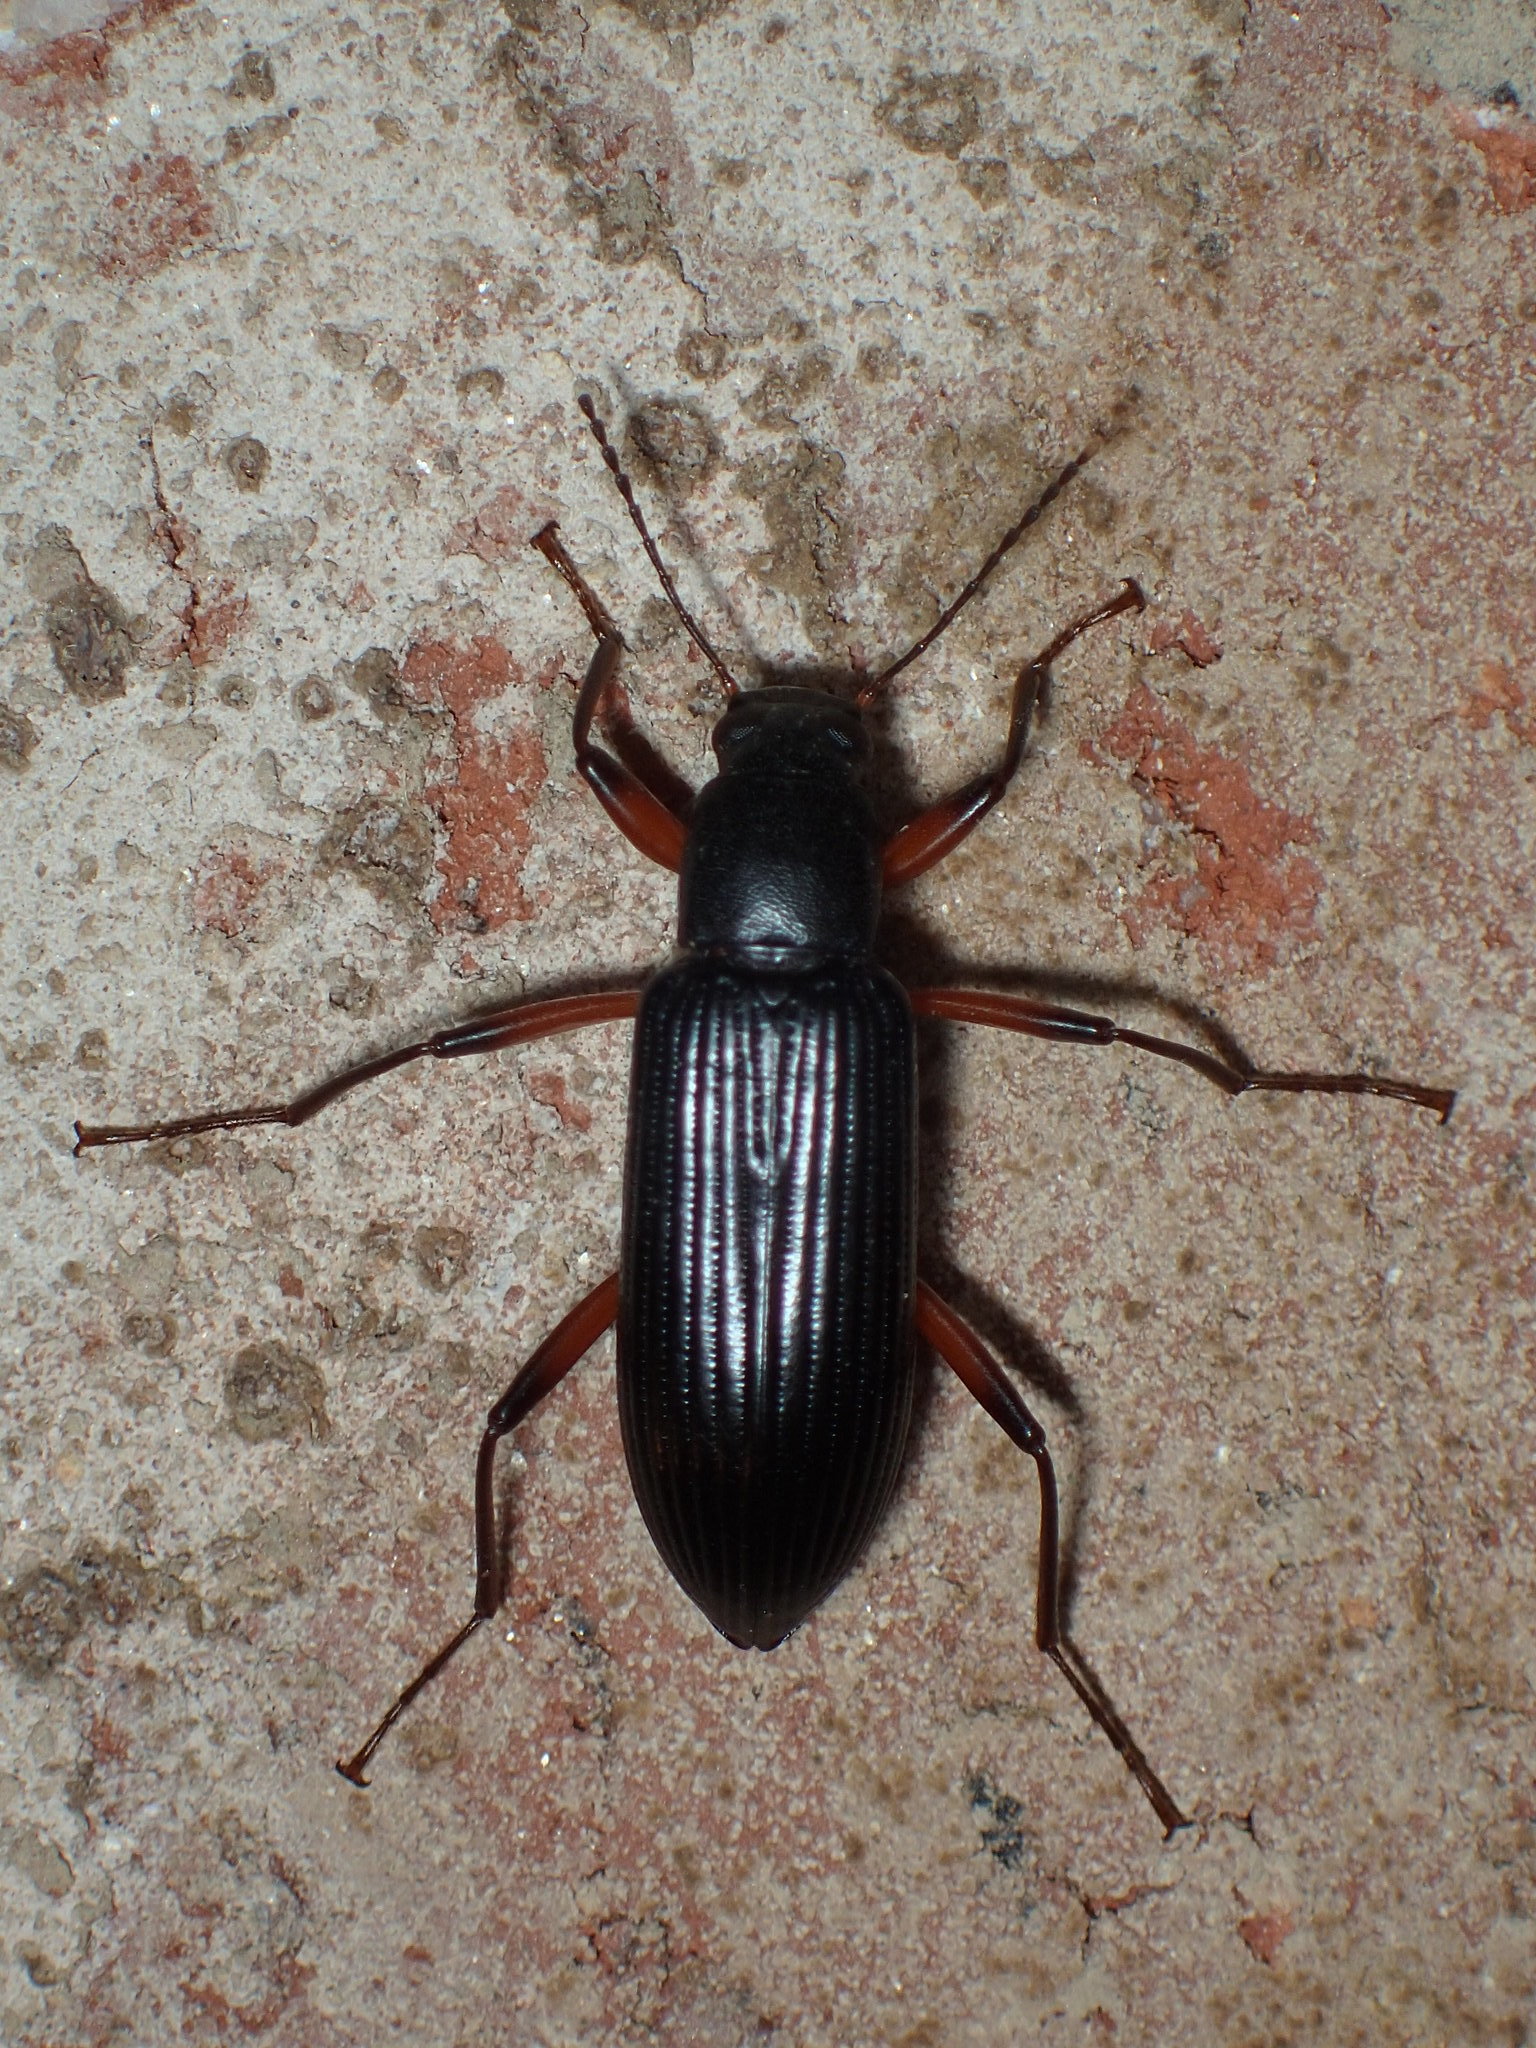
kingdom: Animalia
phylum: Arthropoda
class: Insecta
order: Coleoptera
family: Tenebrionidae
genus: Strongylium
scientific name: Strongylium tenuicolle
